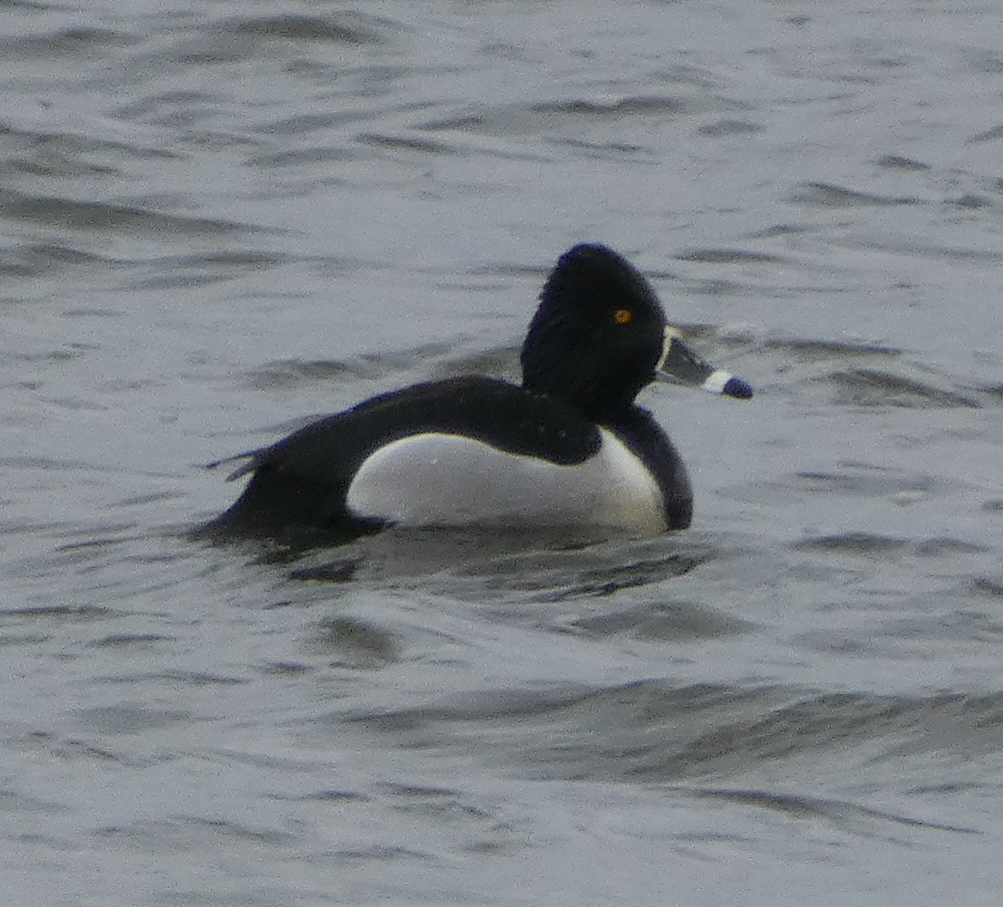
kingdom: Animalia
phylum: Chordata
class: Aves
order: Anseriformes
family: Anatidae
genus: Aythya
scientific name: Aythya collaris
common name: Ring-necked duck
